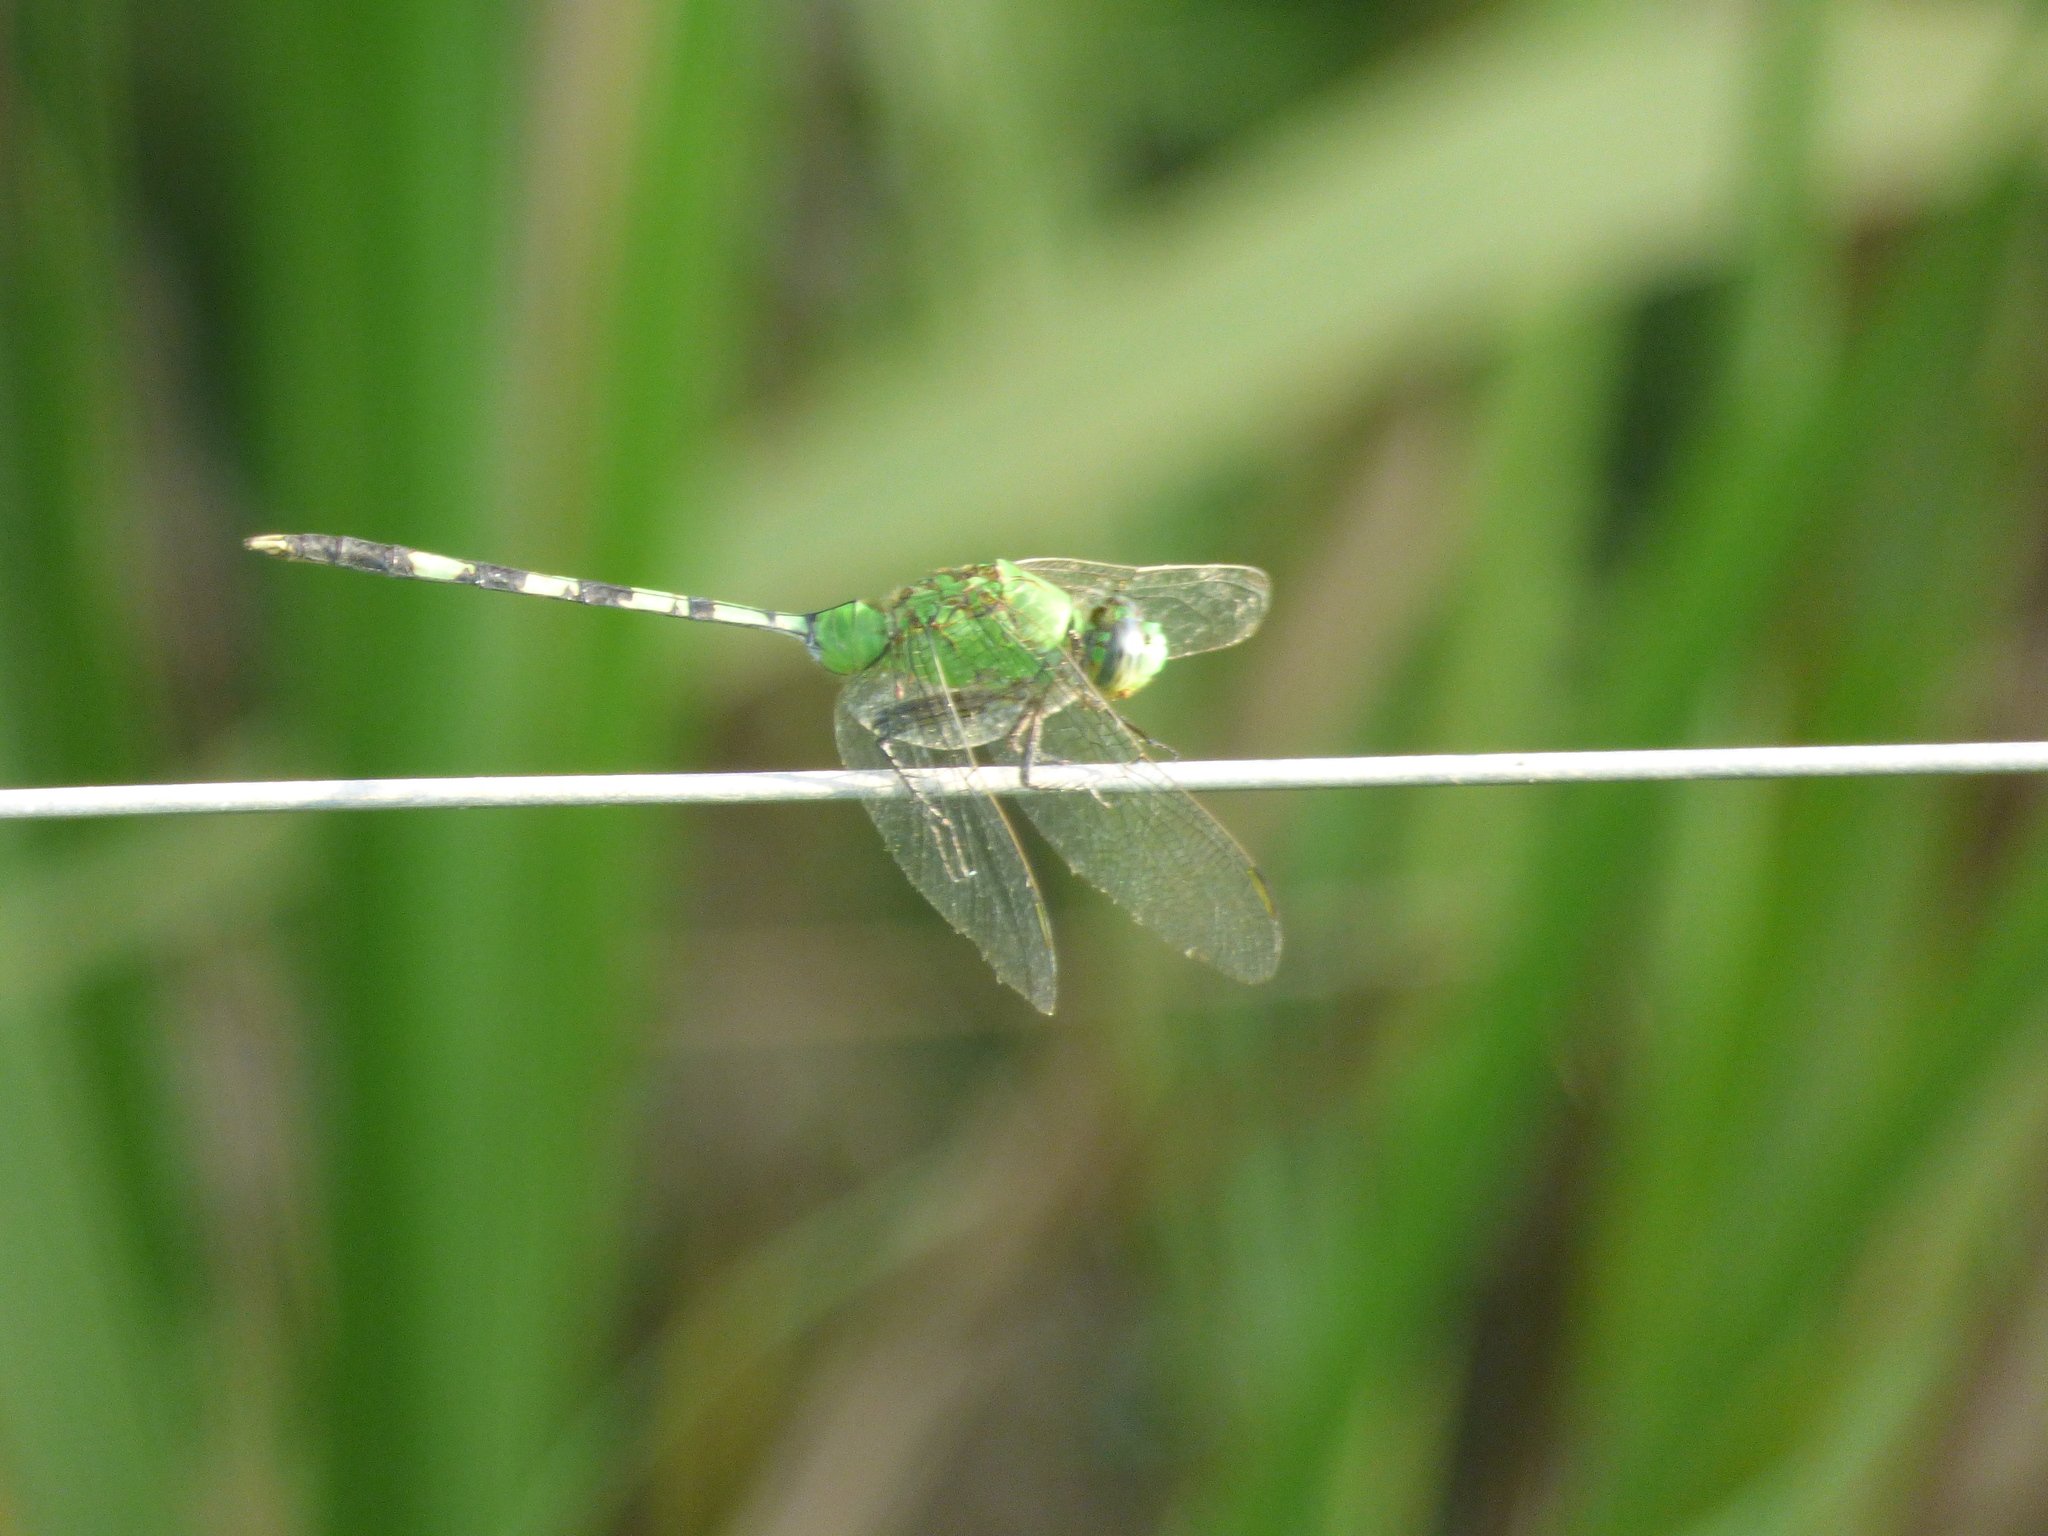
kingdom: Animalia
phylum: Arthropoda
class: Insecta
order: Odonata
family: Libellulidae
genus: Erythemis
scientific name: Erythemis vesiculosa
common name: Great pondhawk
